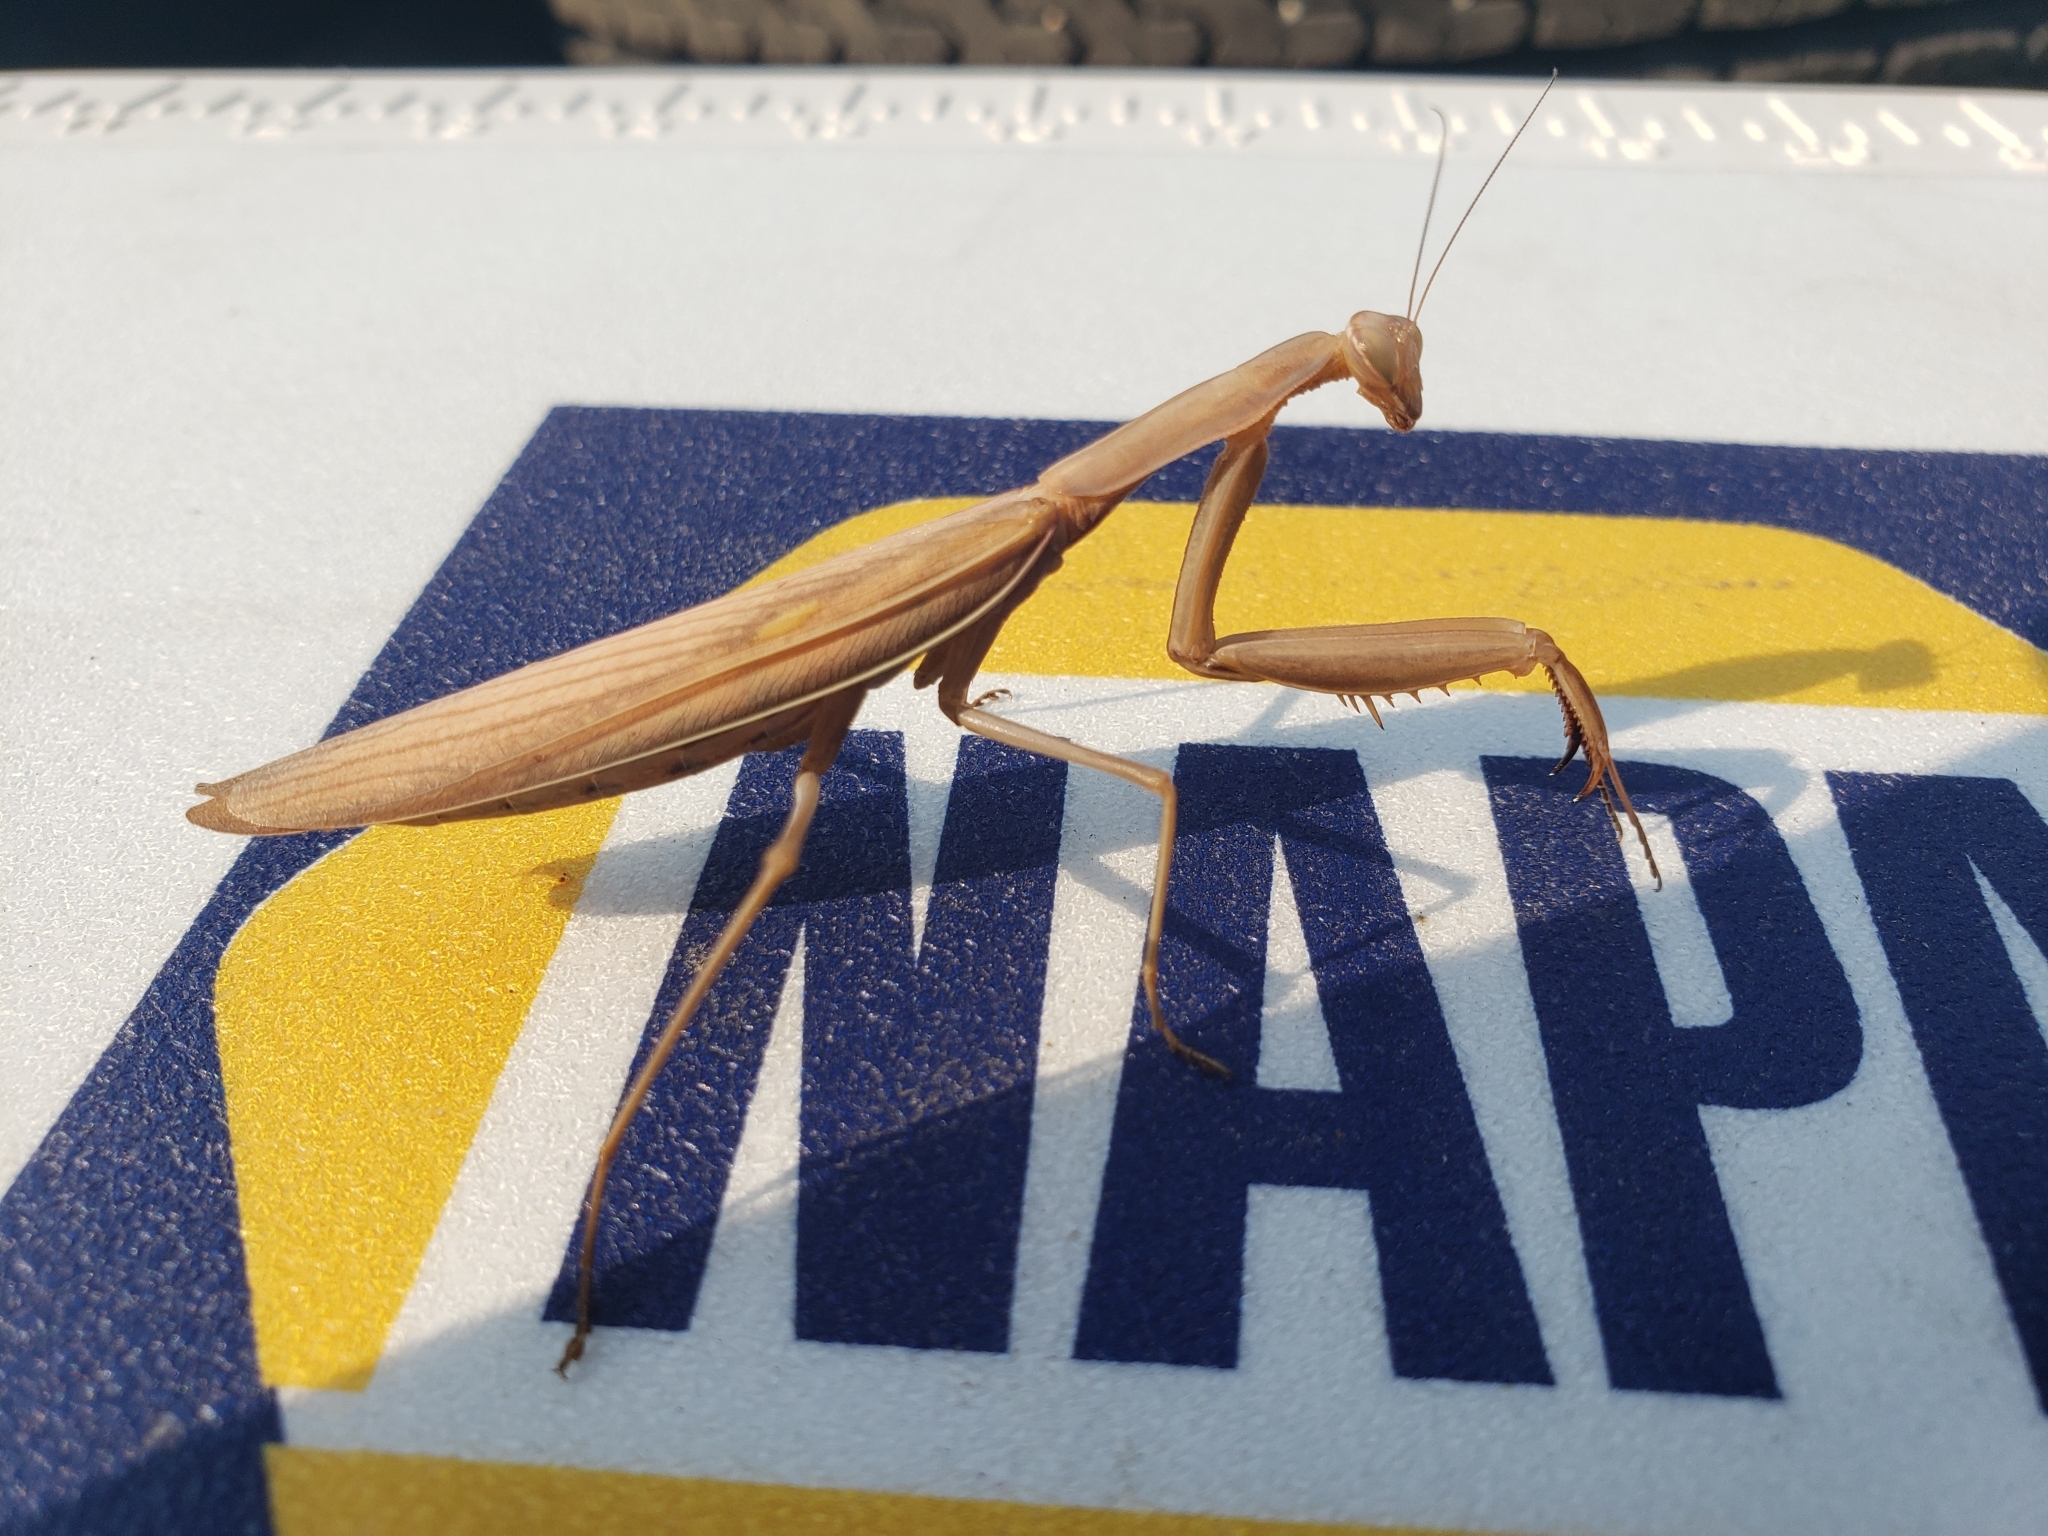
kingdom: Animalia
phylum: Arthropoda
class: Insecta
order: Mantodea
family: Mantidae
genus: Mantis
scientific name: Mantis religiosa
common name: Praying mantis
